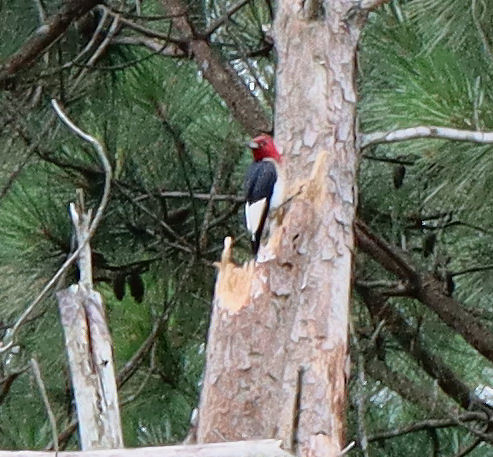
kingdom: Animalia
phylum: Chordata
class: Aves
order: Piciformes
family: Picidae
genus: Melanerpes
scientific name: Melanerpes erythrocephalus
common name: Red-headed woodpecker
